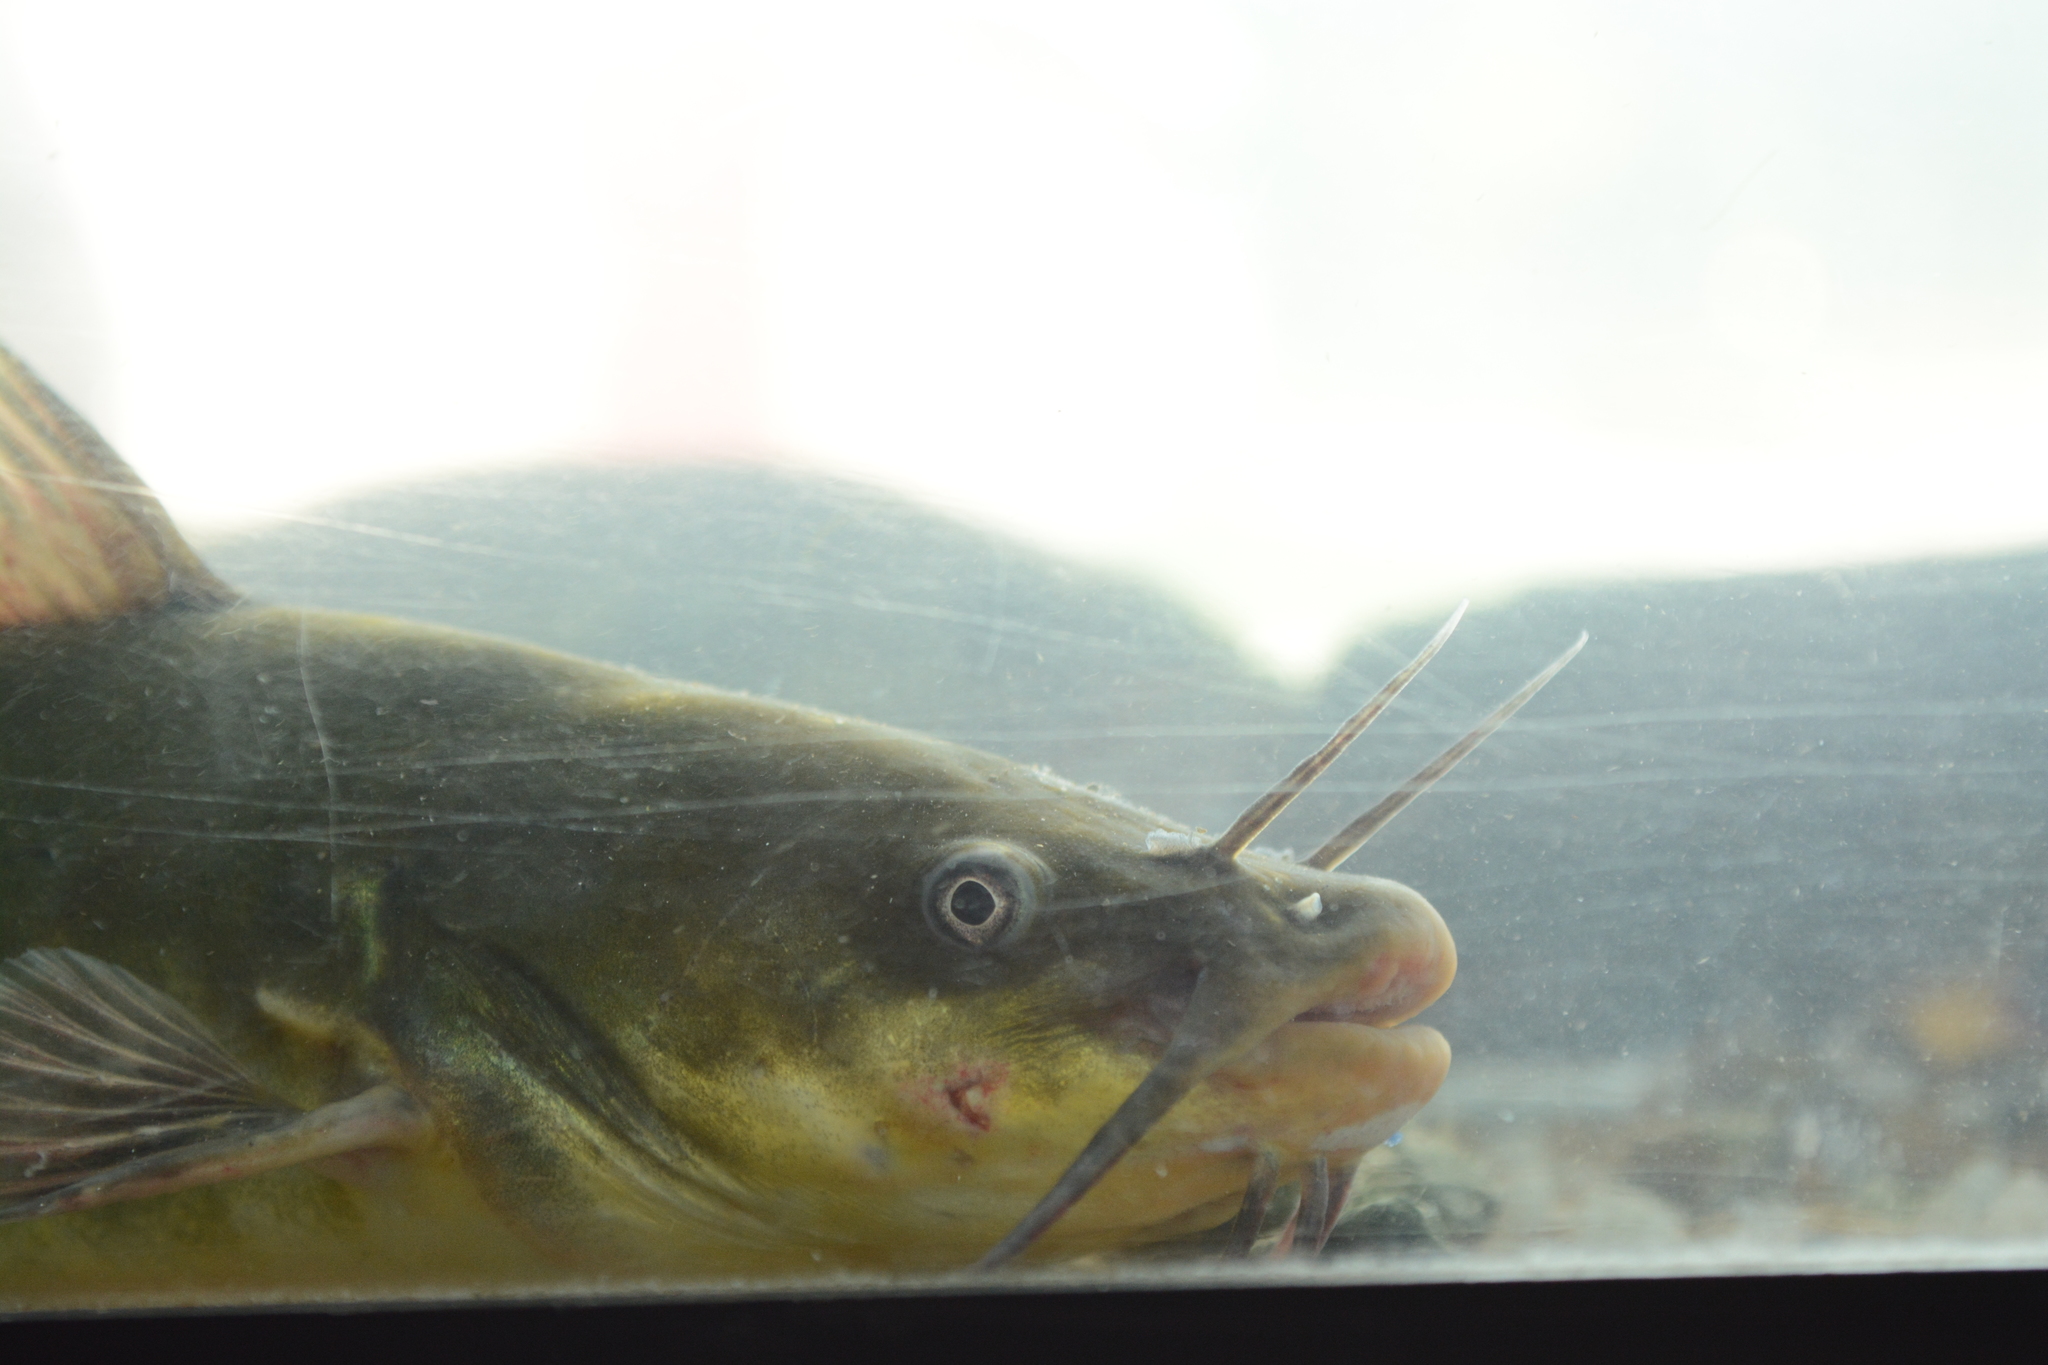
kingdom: Animalia
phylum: Chordata
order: Siluriformes
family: Ictaluridae
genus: Ameiurus
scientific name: Ameiurus melas
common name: Black bullhead
